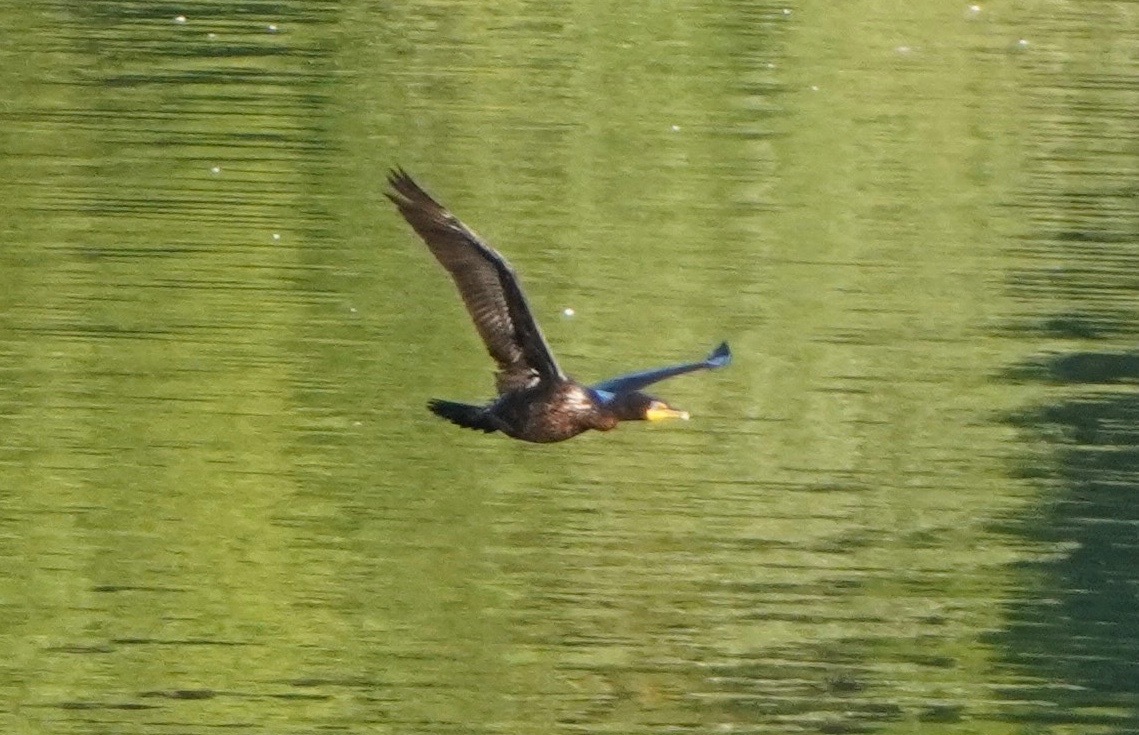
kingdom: Animalia
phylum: Chordata
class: Aves
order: Suliformes
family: Phalacrocoracidae
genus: Phalacrocorax
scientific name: Phalacrocorax auritus
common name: Double-crested cormorant
